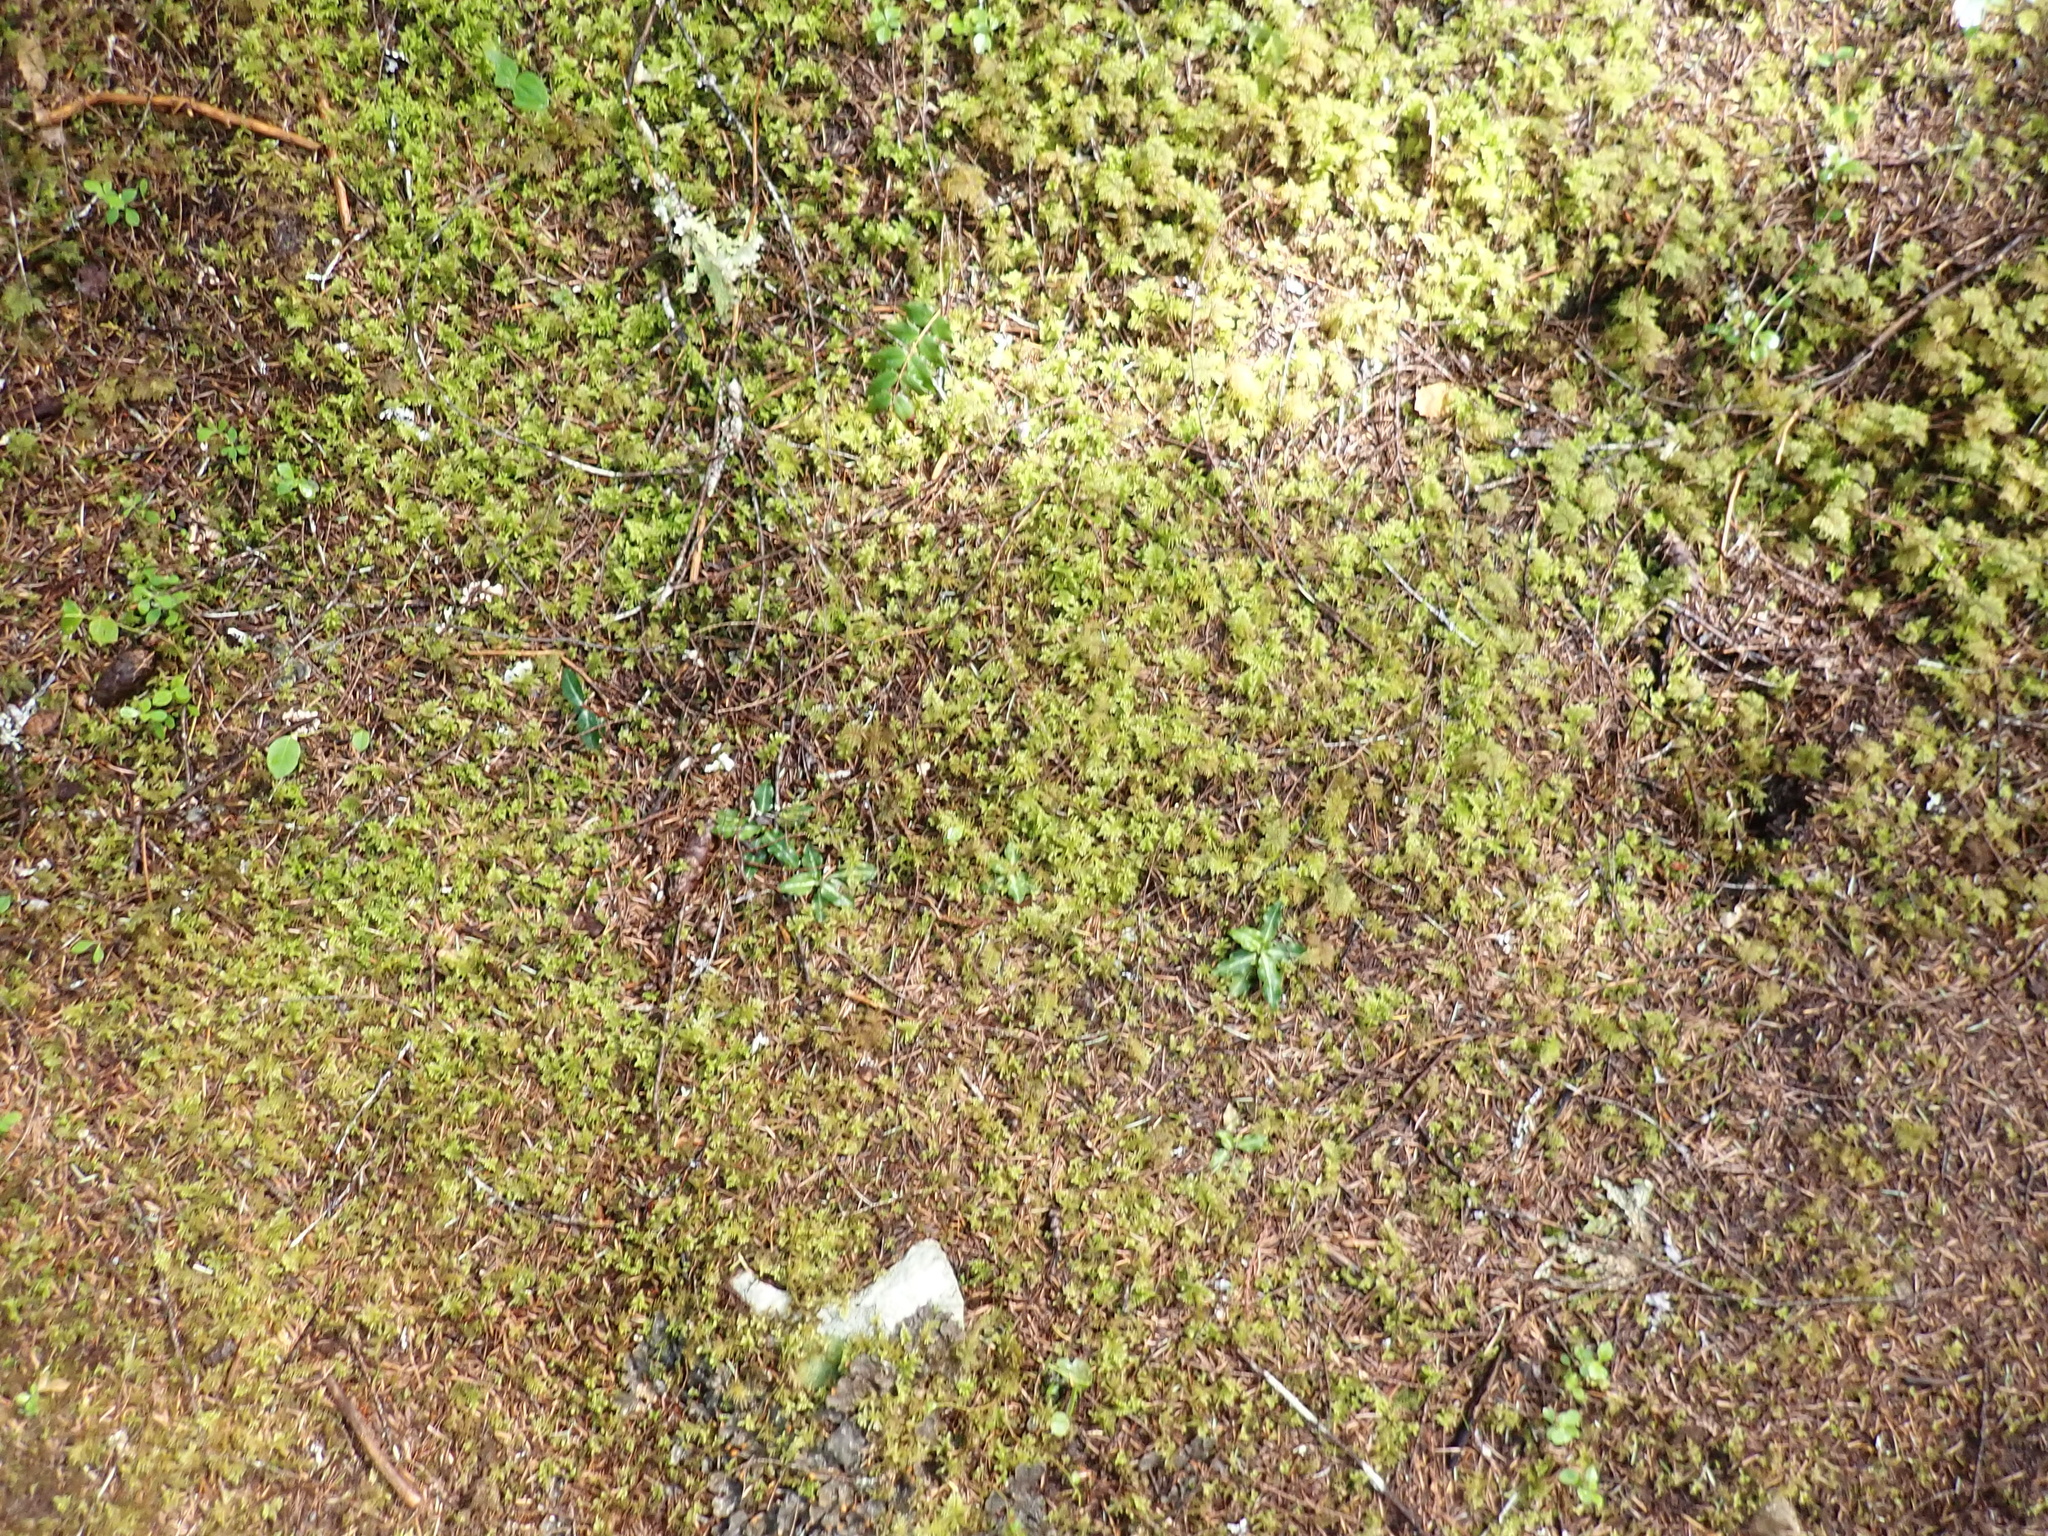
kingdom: Plantae
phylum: Tracheophyta
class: Liliopsida
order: Asparagales
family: Orchidaceae
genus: Goodyera
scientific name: Goodyera oblongifolia
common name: Giant rattlesnake-plantain
